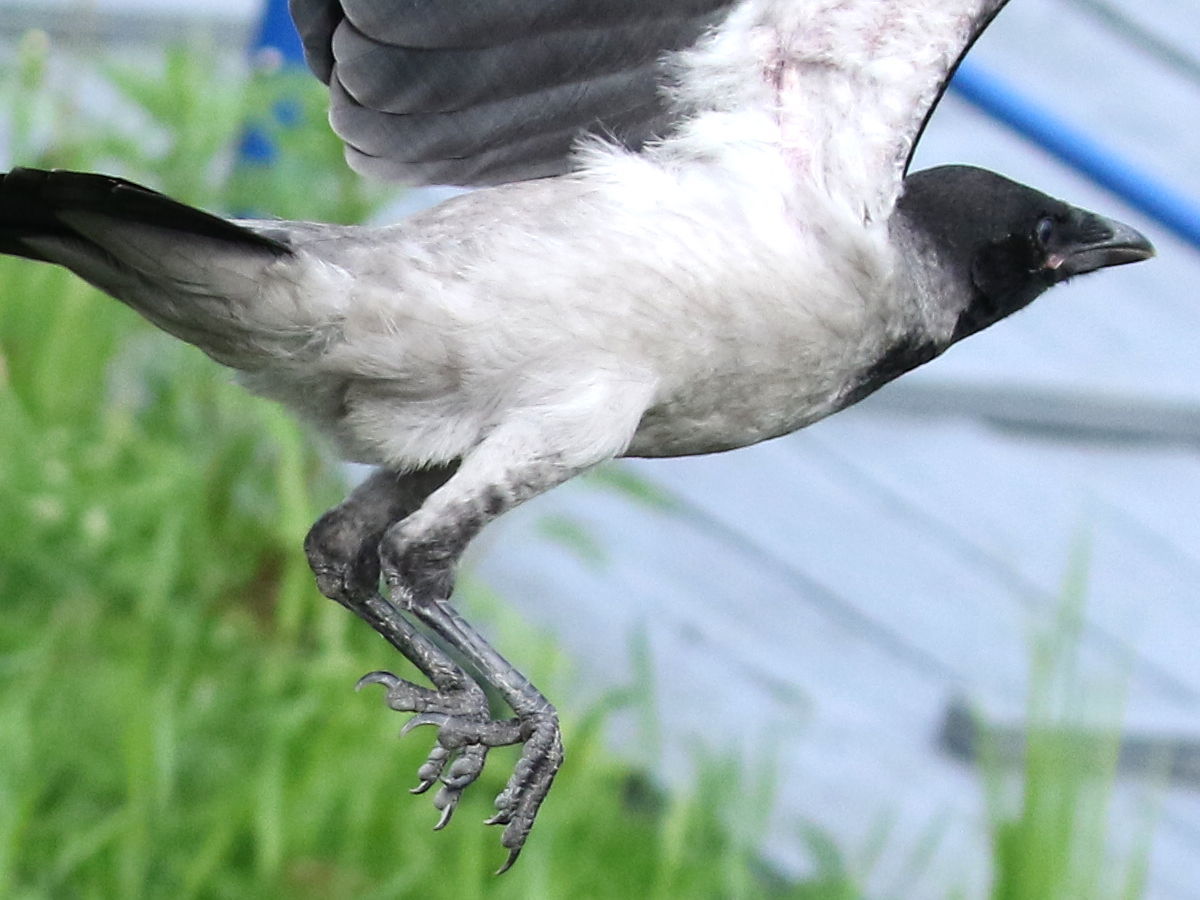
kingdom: Animalia
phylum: Chordata
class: Aves
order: Passeriformes
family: Corvidae
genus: Corvus
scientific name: Corvus cornix
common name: Hooded crow
